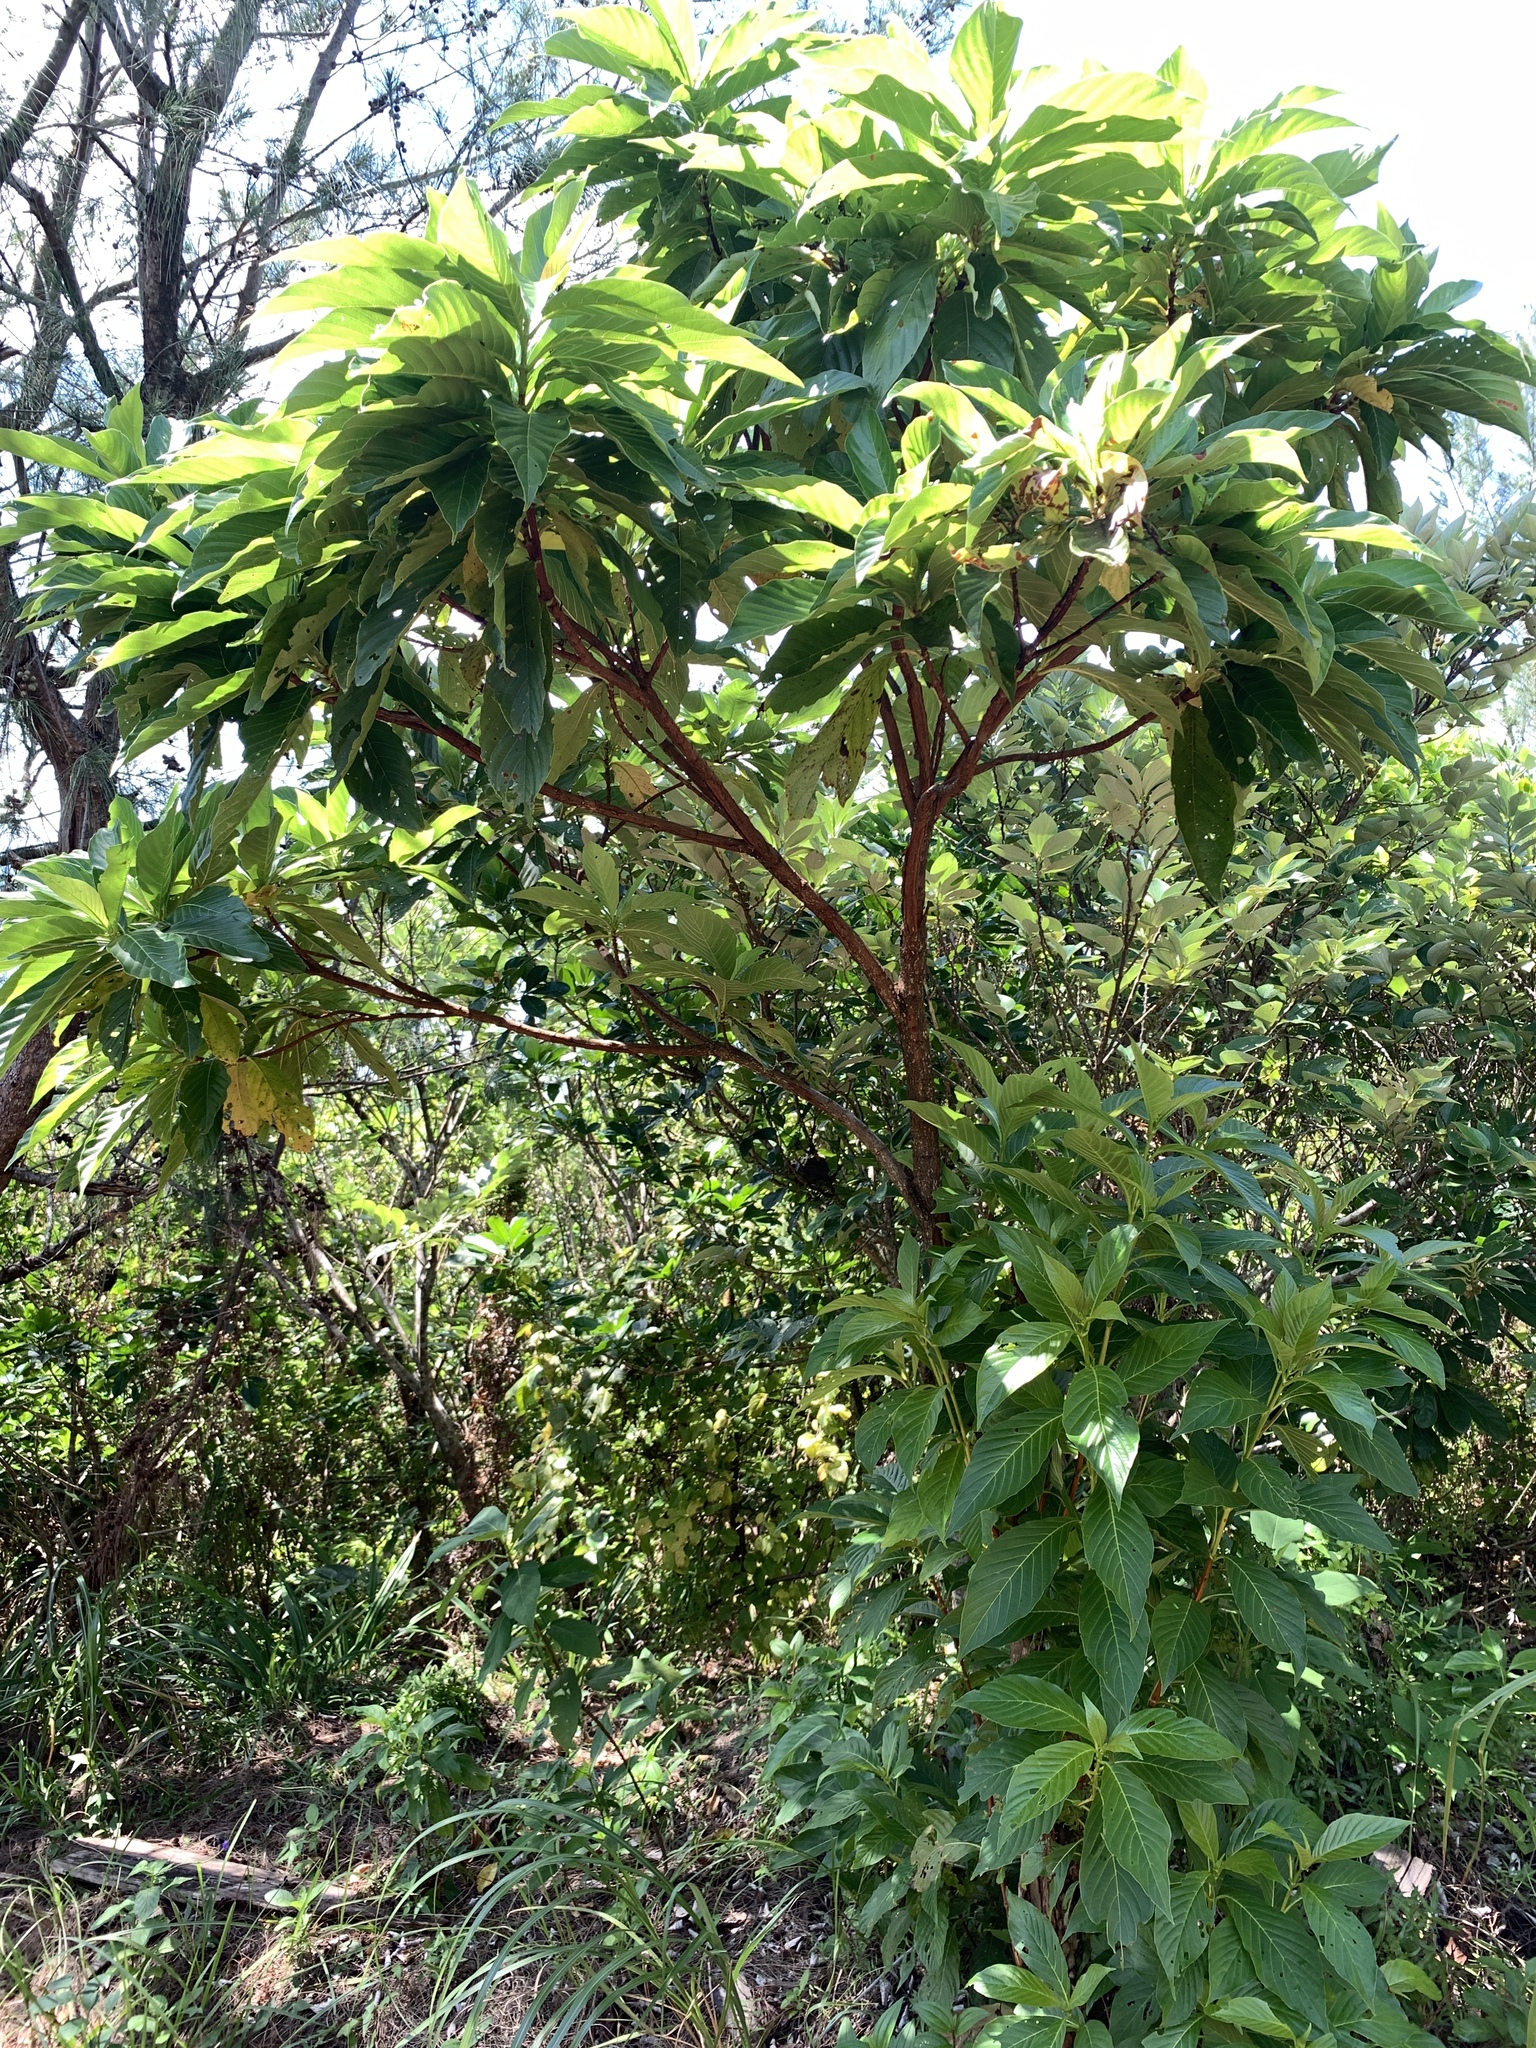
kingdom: Plantae
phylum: Tracheophyta
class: Magnoliopsida
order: Gentianales
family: Rubiaceae
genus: Wendlandia
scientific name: Wendlandia luzoniensis
